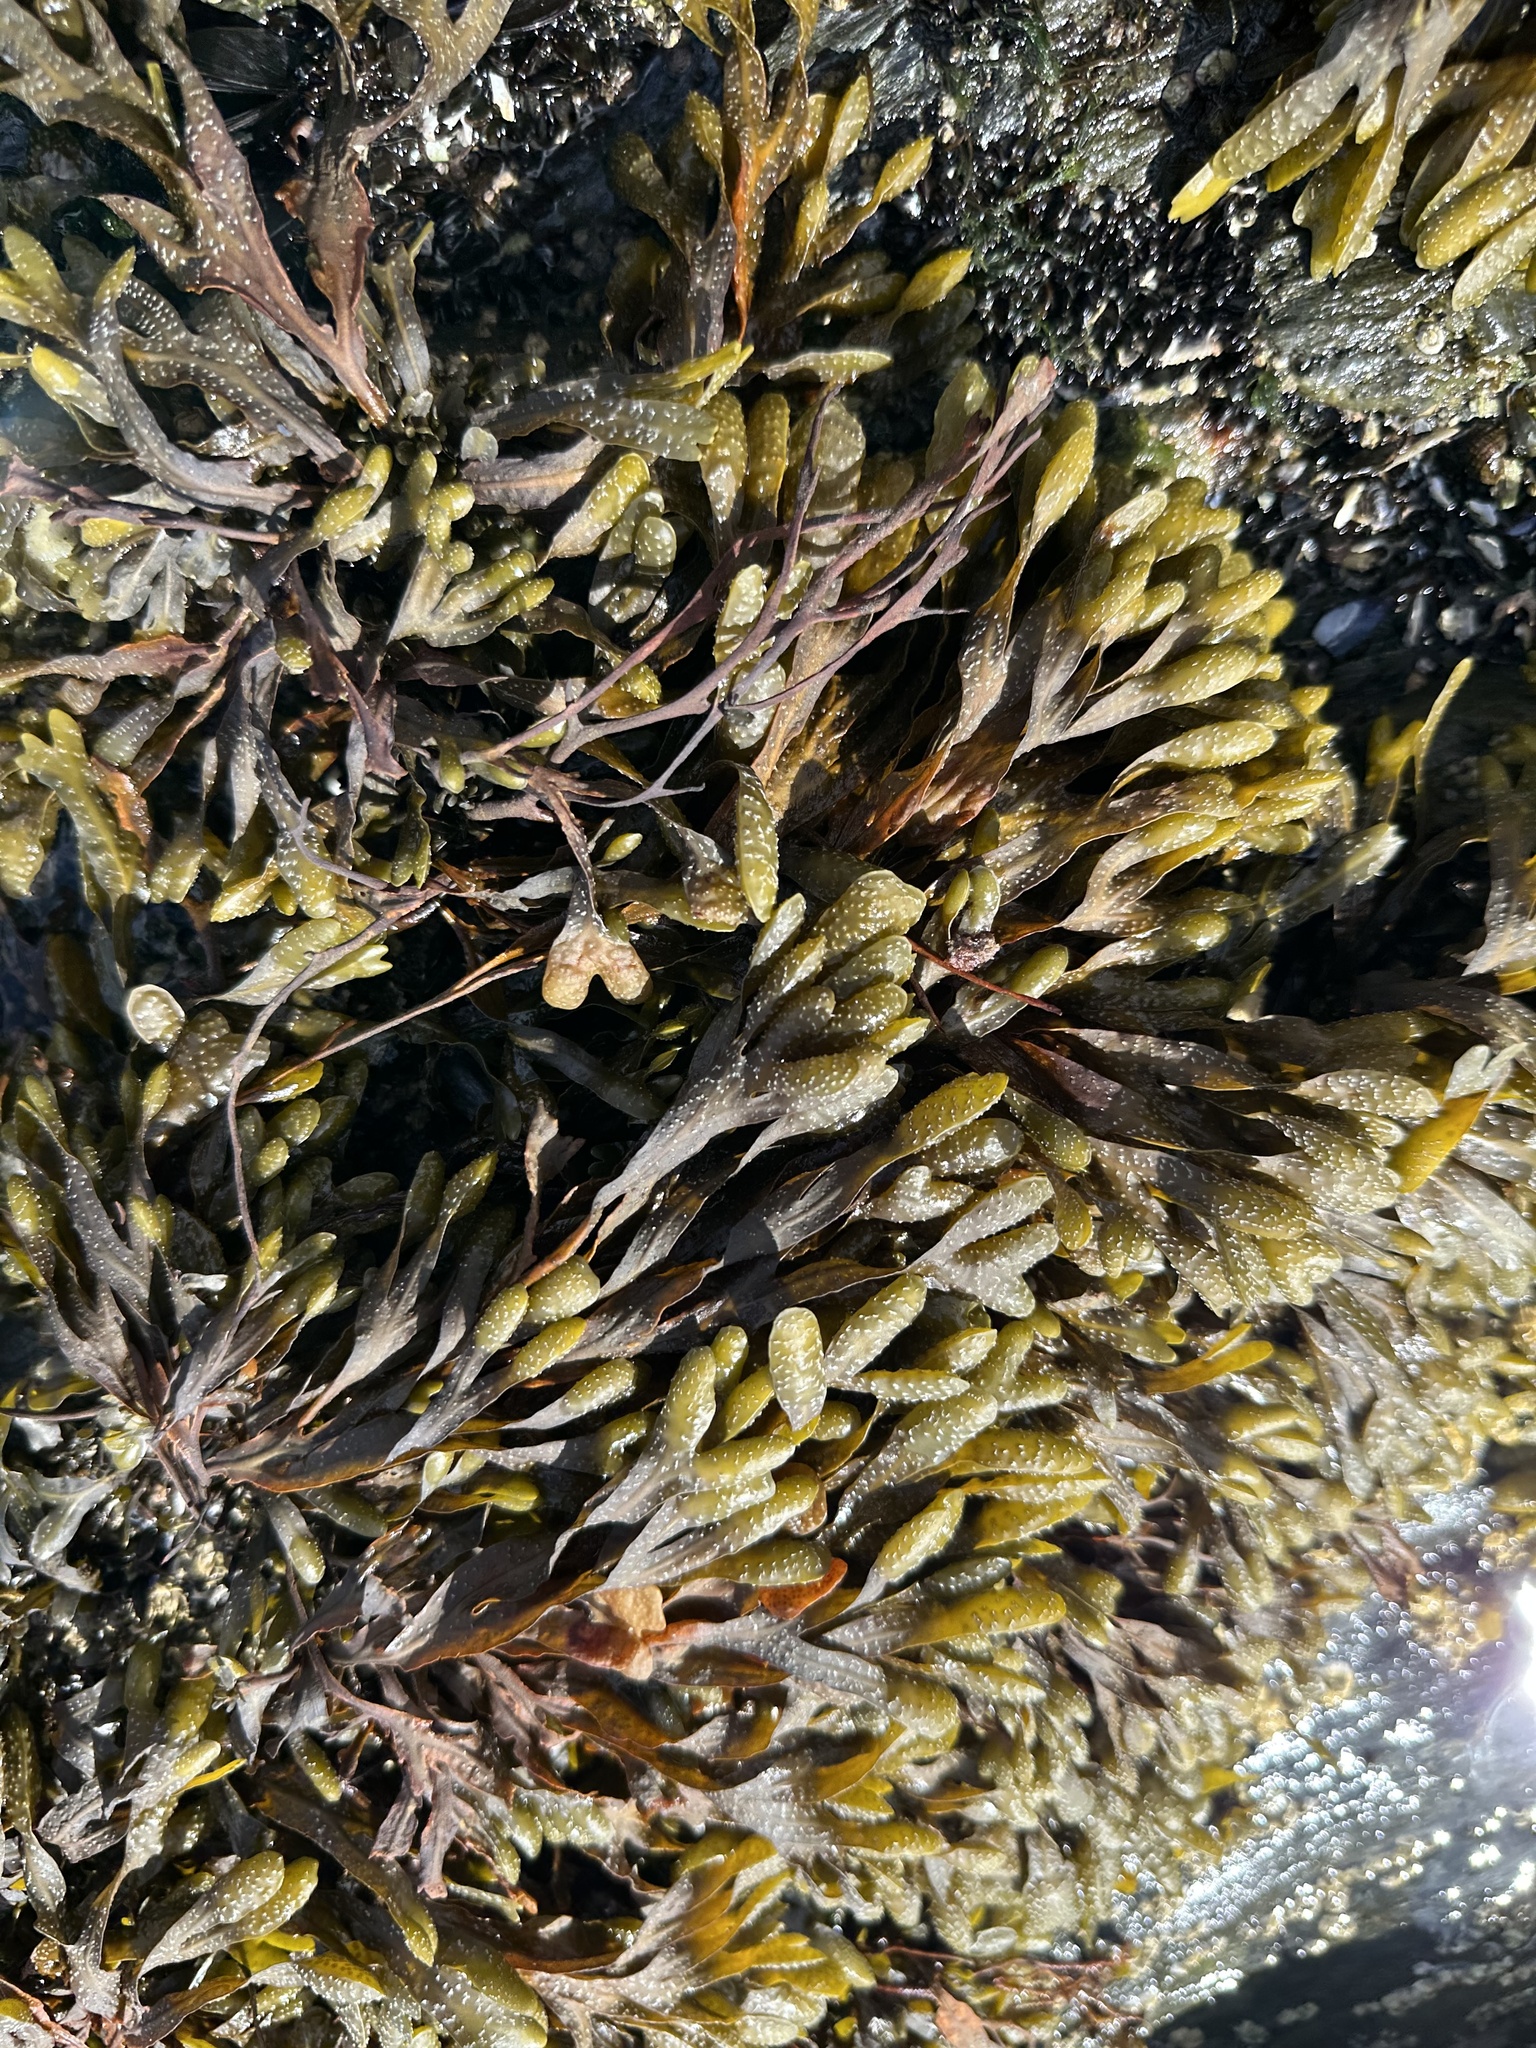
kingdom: Chromista
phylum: Ochrophyta
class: Phaeophyceae
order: Fucales
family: Fucaceae
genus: Fucus
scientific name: Fucus vesiculosus
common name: Bladder wrack
